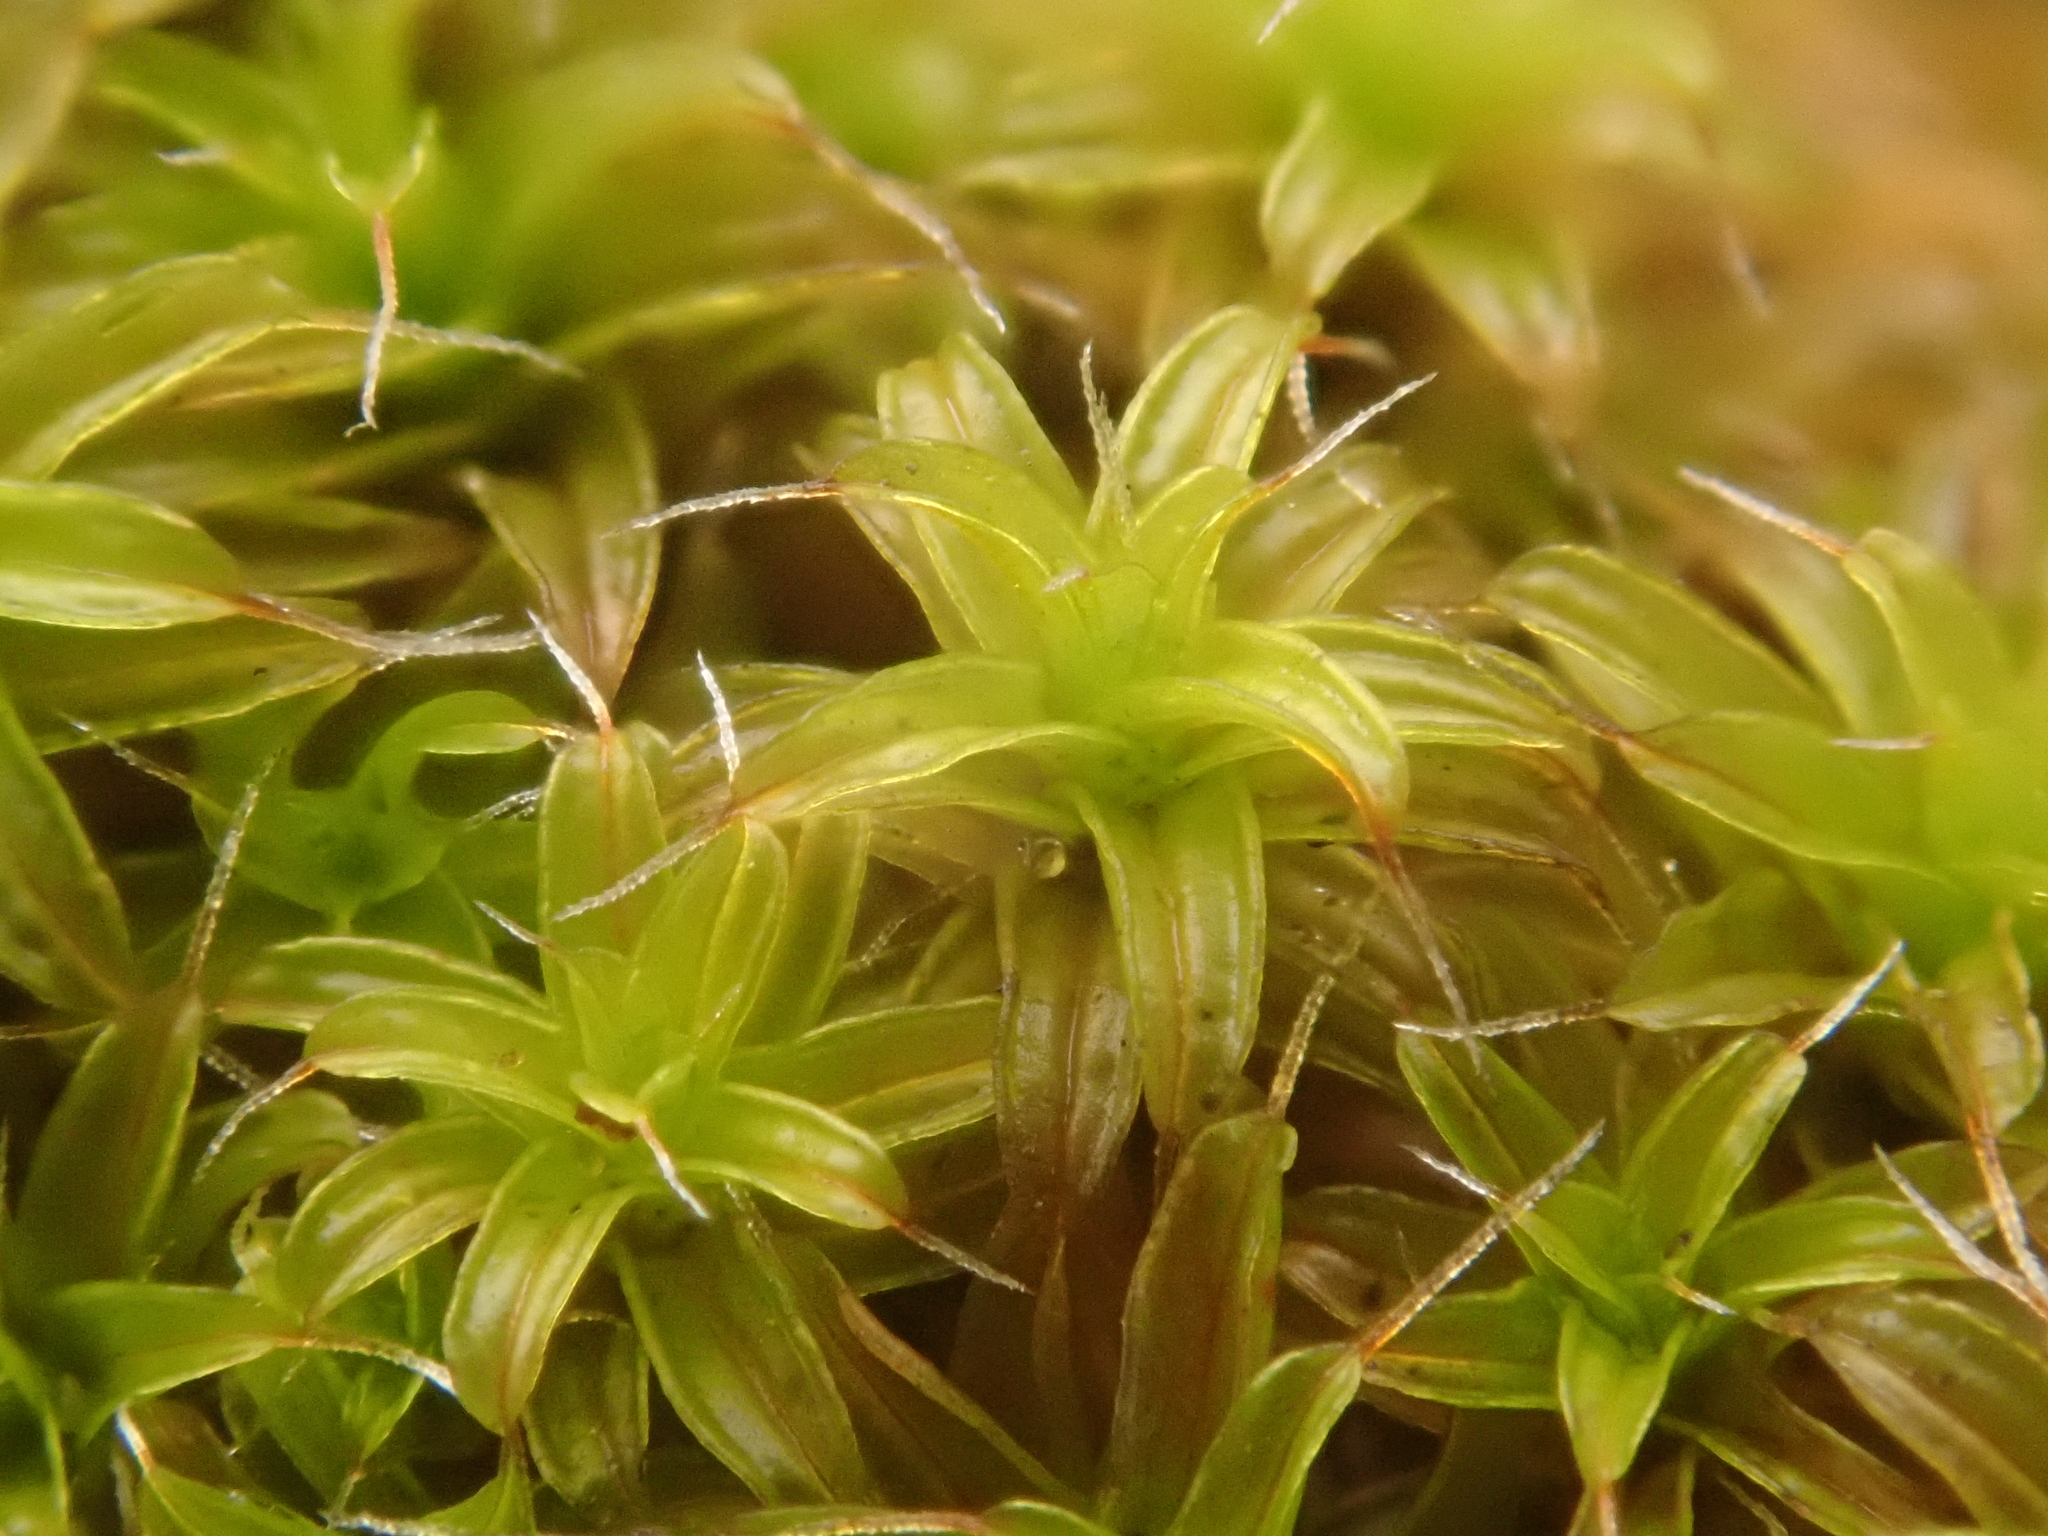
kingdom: Plantae
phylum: Bryophyta
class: Bryopsida
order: Pottiales
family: Pottiaceae
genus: Syntrichia
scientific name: Syntrichia ruralis
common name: Sidewalk screw moss
